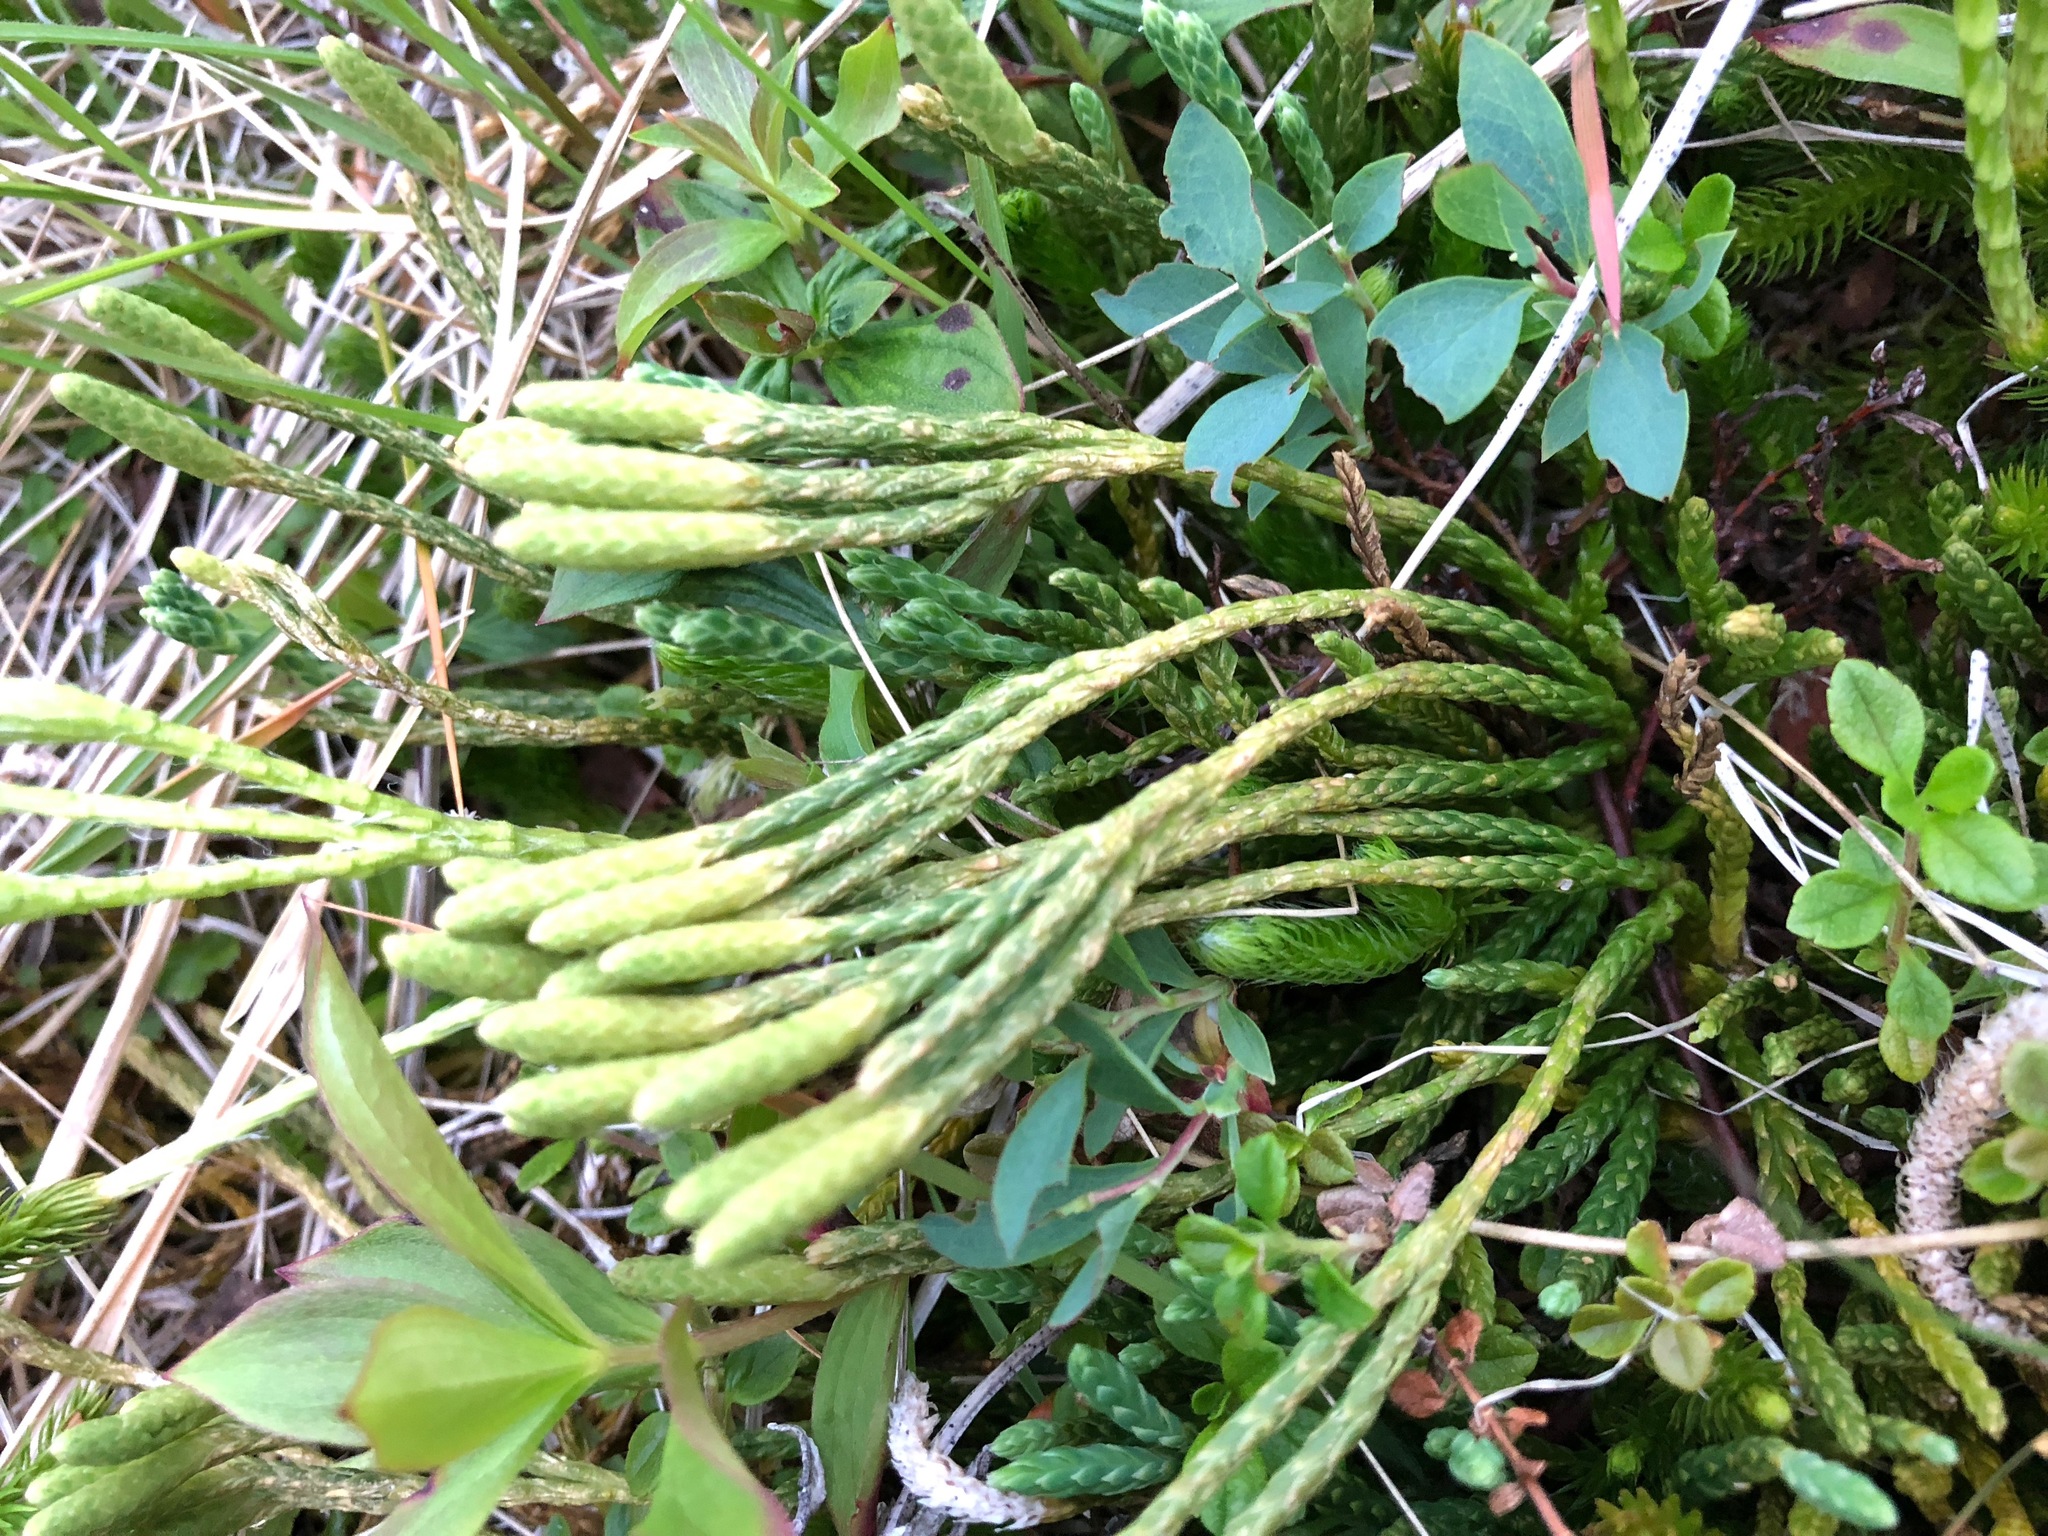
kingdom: Plantae
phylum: Tracheophyta
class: Lycopodiopsida
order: Lycopodiales
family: Lycopodiaceae
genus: Diphasiastrum
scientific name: Diphasiastrum alpinum
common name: Alpine clubmoss
